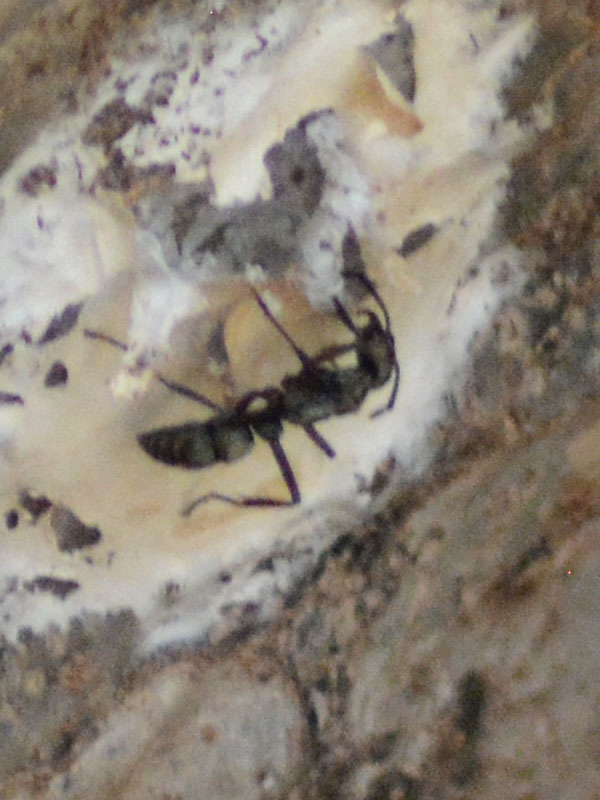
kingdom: Animalia
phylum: Arthropoda
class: Insecta
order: Hymenoptera
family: Formicidae
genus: Pachycondyla
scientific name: Pachycondyla villosa
